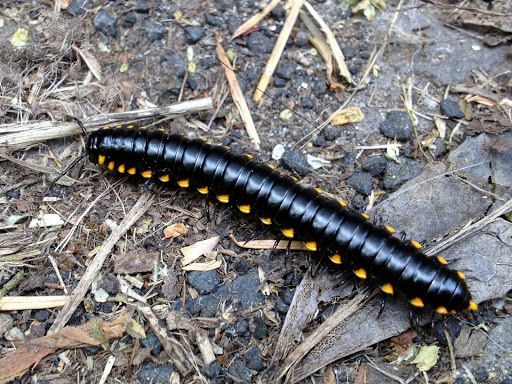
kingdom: Animalia
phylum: Arthropoda
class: Diplopoda
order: Polydesmida
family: Xystodesmidae
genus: Harpaphe
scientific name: Harpaphe haydeniana
